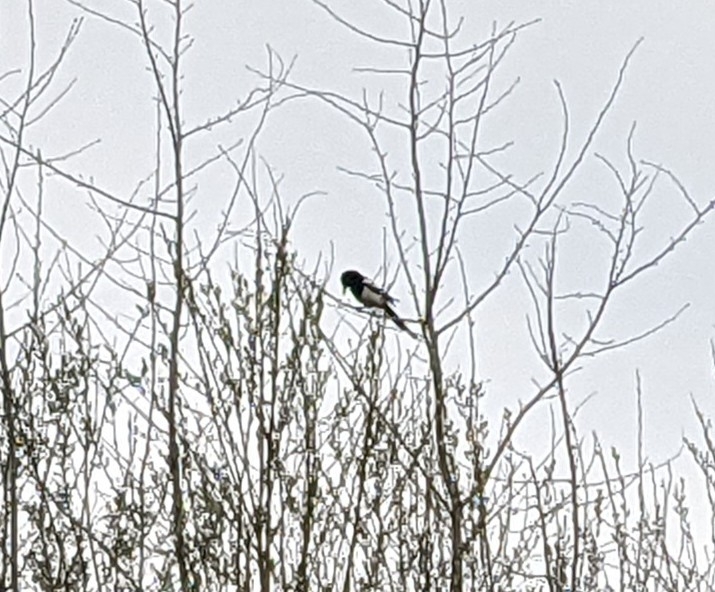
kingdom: Animalia
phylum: Chordata
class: Aves
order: Passeriformes
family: Corvidae
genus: Pica
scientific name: Pica pica
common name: Eurasian magpie
